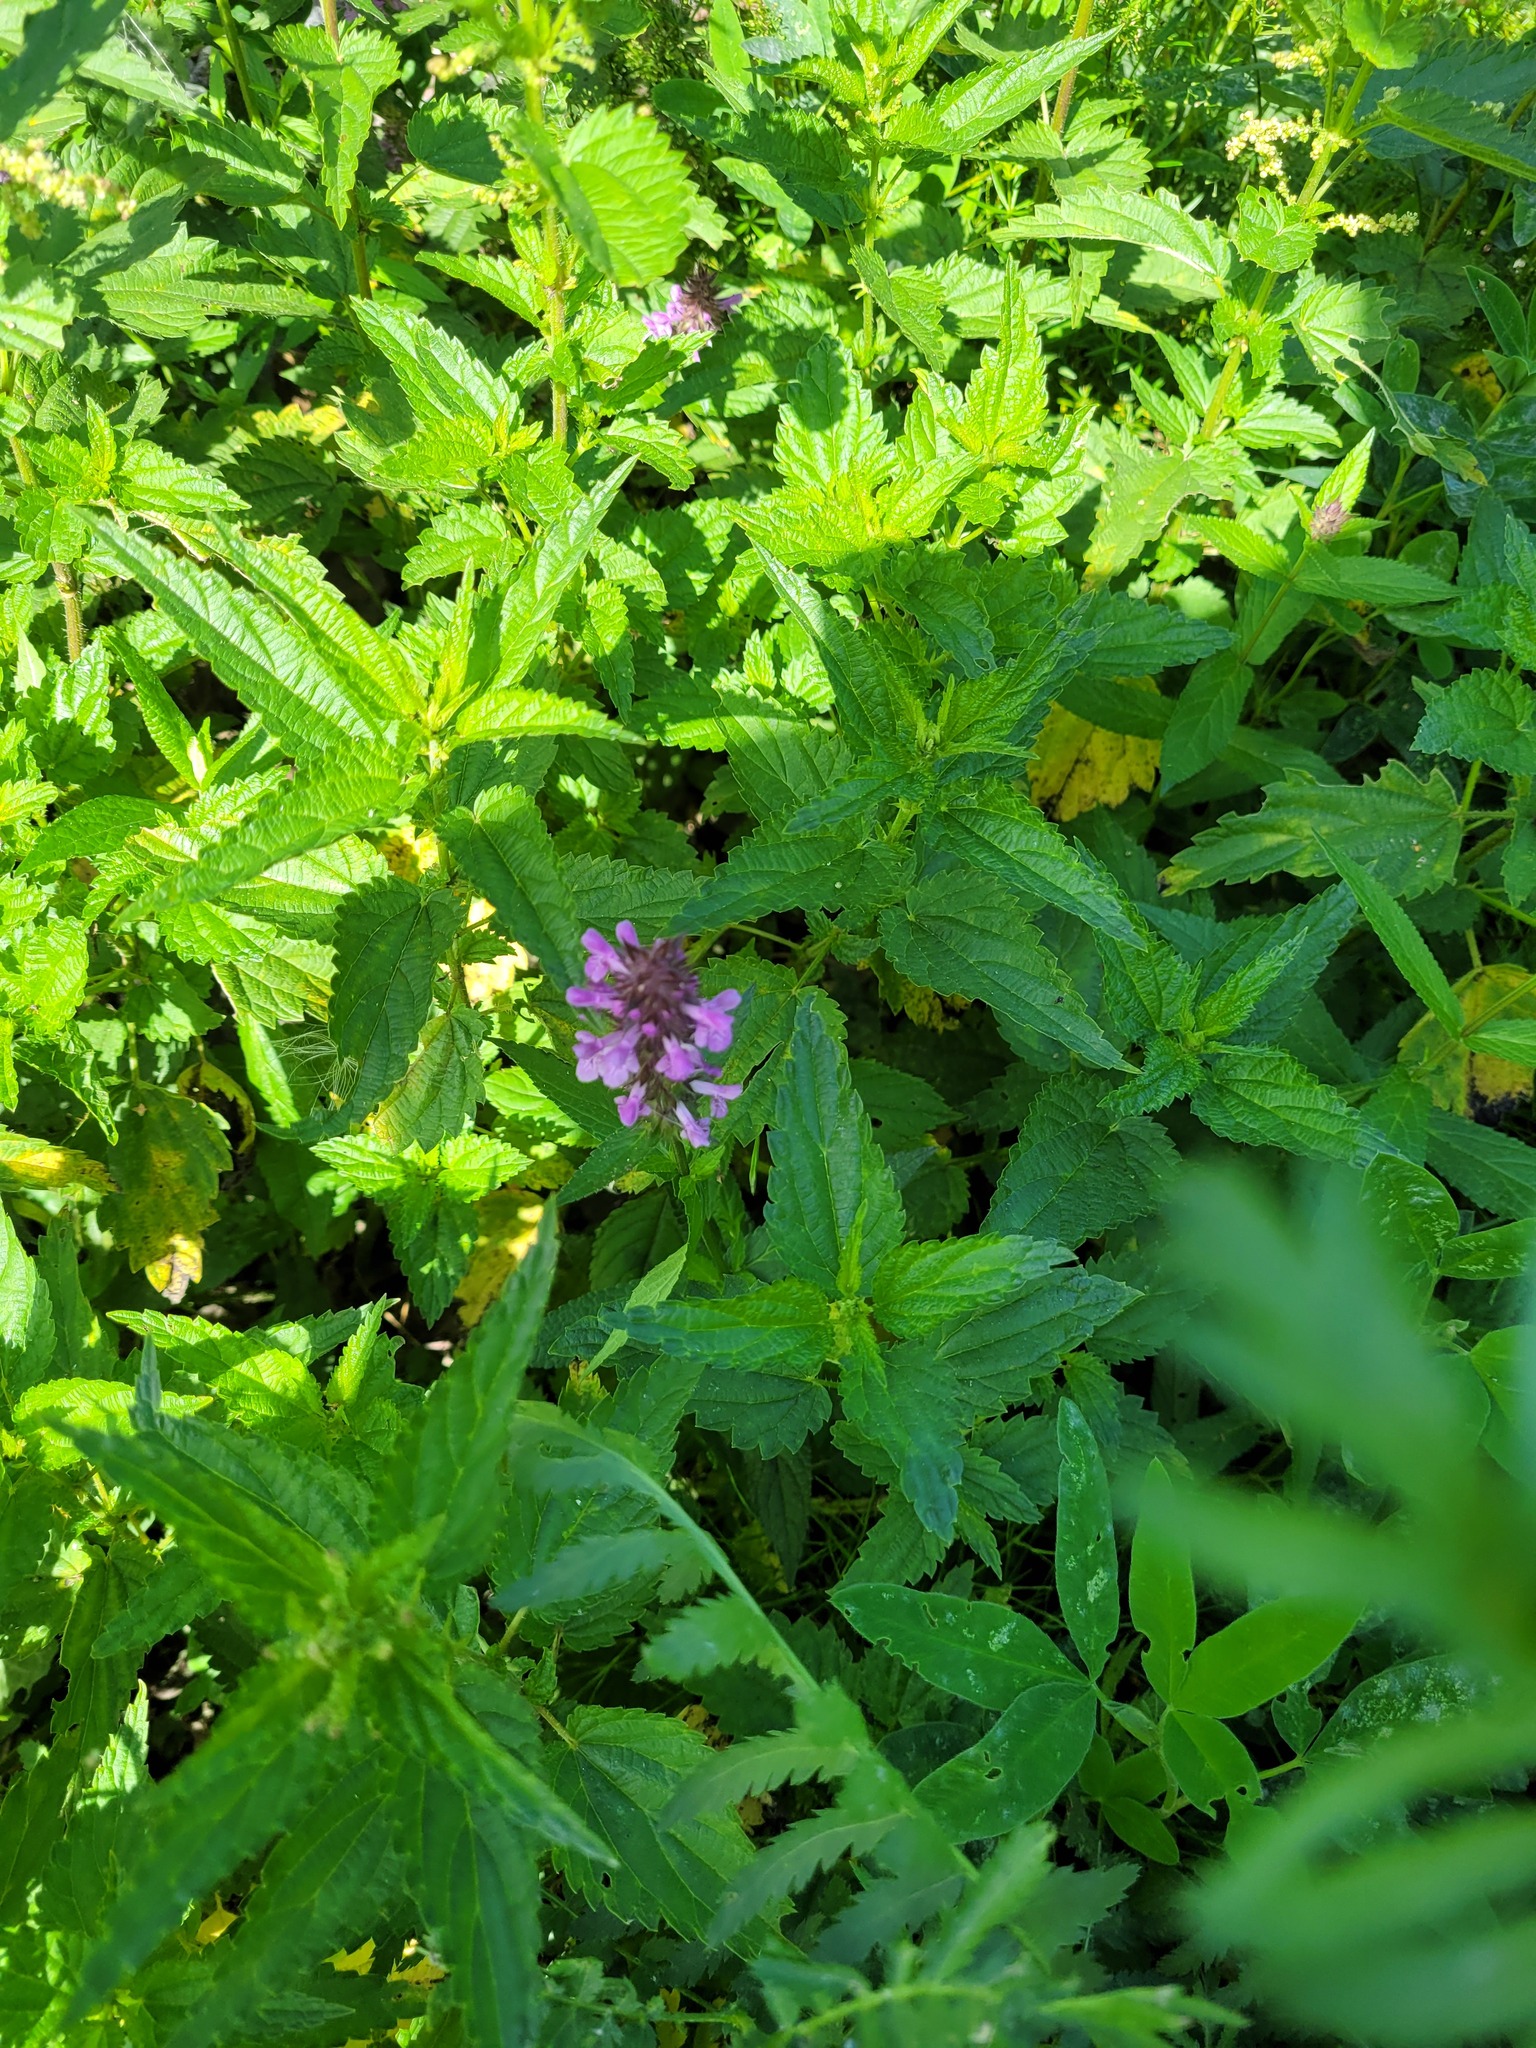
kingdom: Plantae
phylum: Tracheophyta
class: Magnoliopsida
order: Lamiales
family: Lamiaceae
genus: Stachys
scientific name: Stachys palustris
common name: Marsh woundwort
